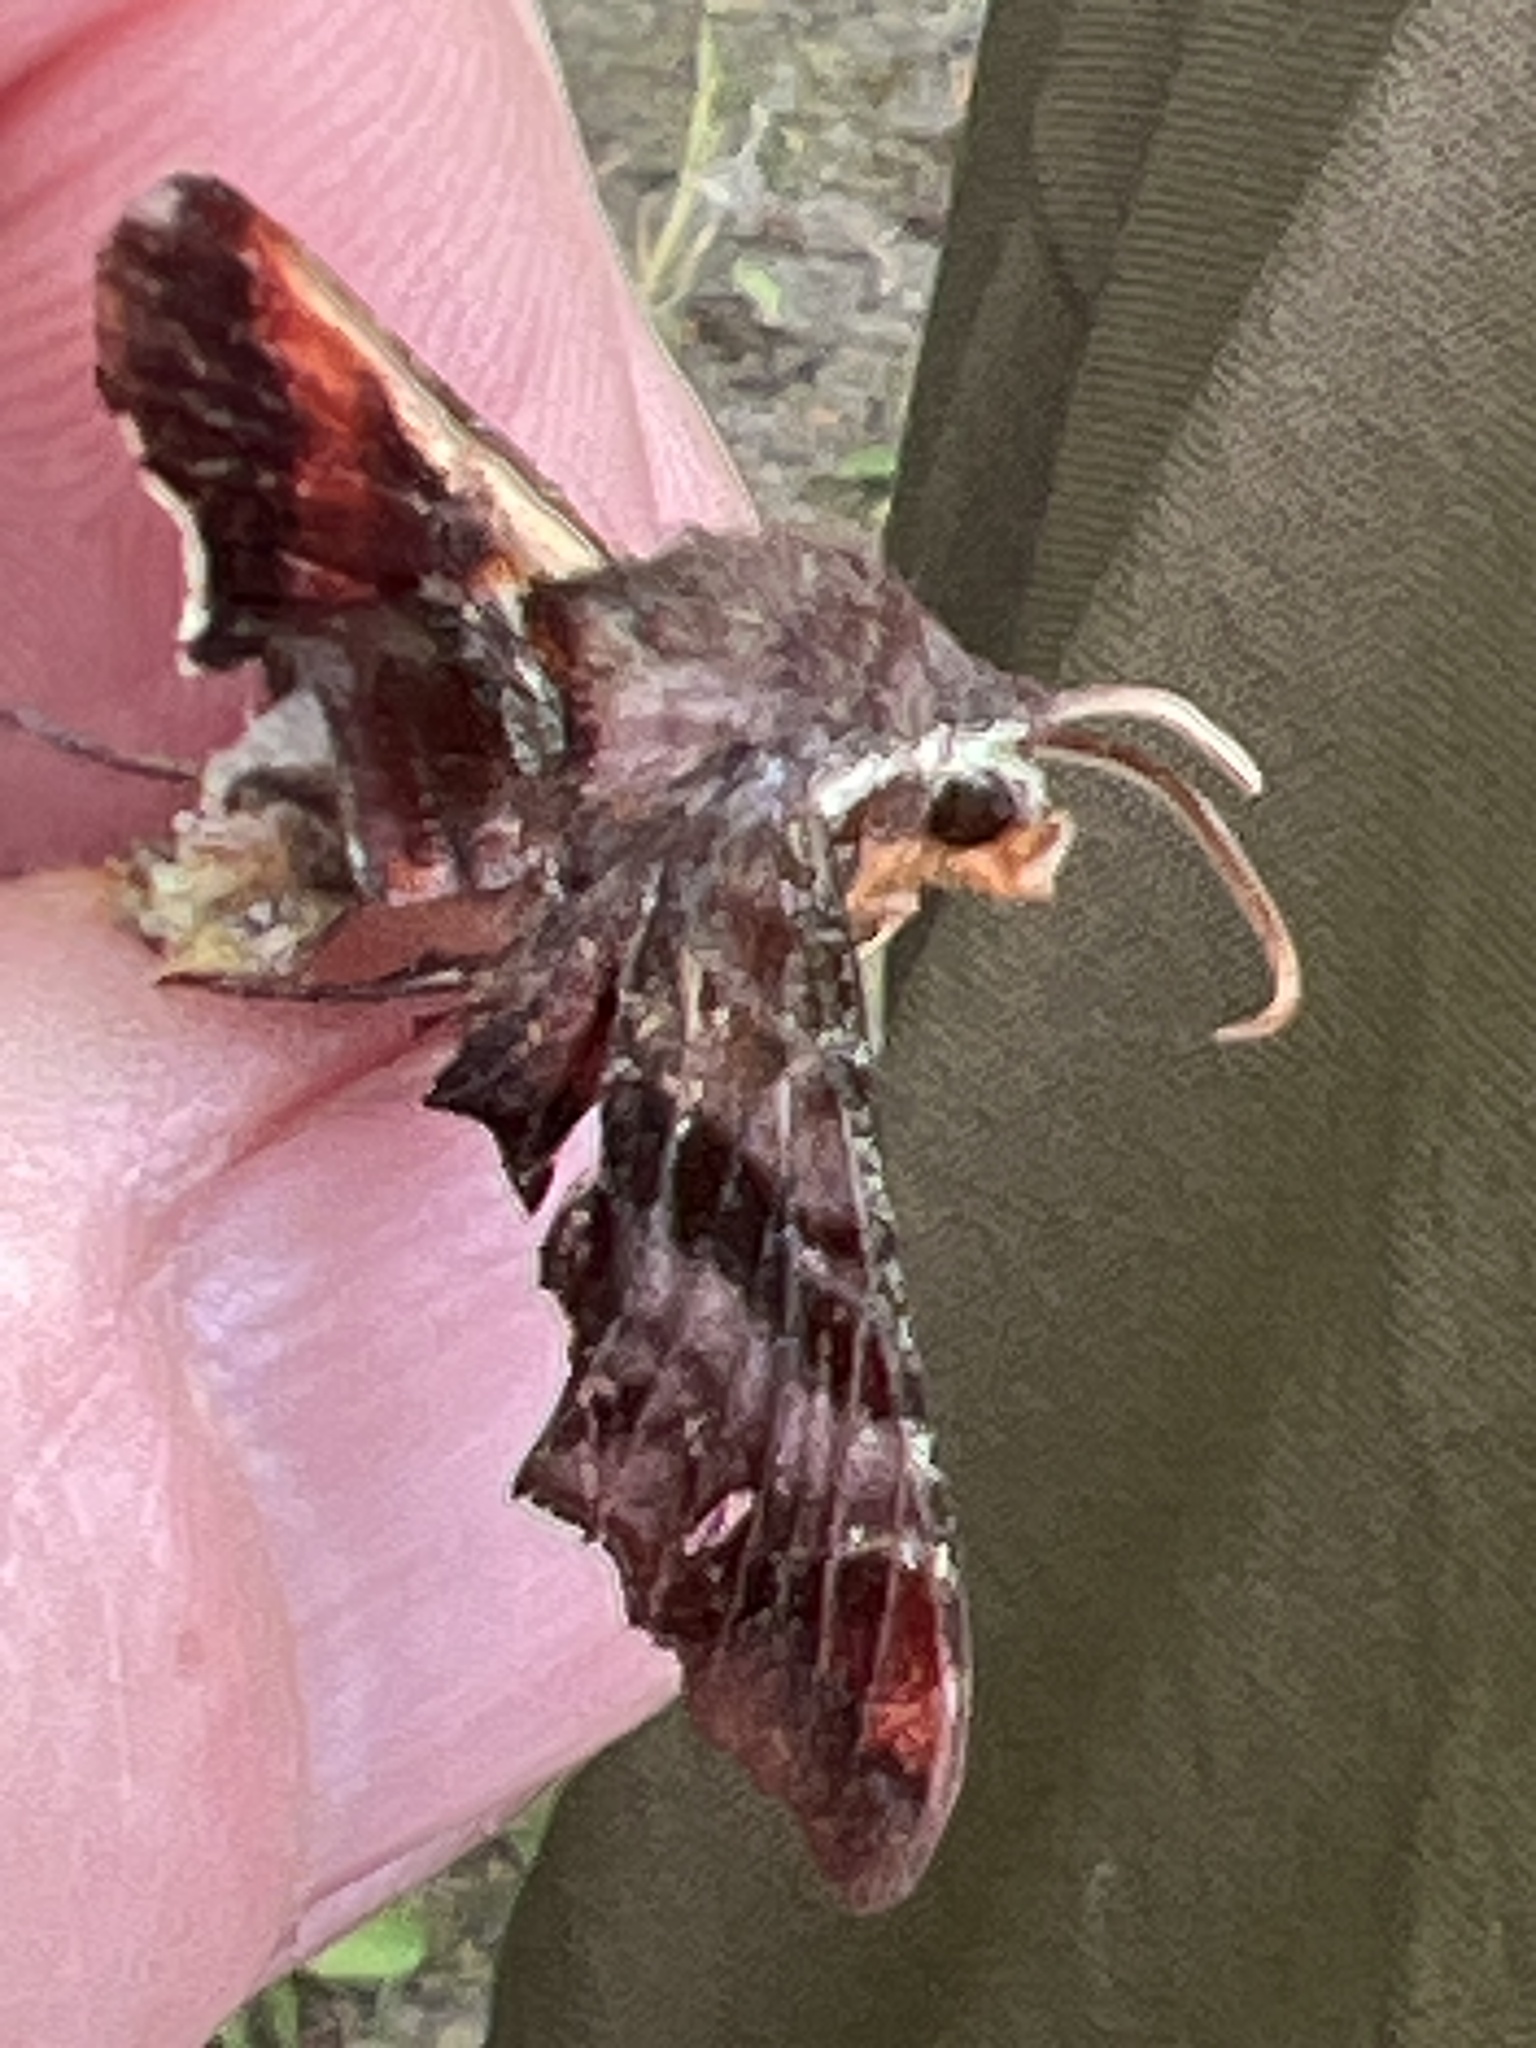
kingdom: Animalia
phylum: Arthropoda
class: Insecta
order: Lepidoptera
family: Sphingidae
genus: Amphion
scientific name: Amphion floridensis
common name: Nessus sphinx
